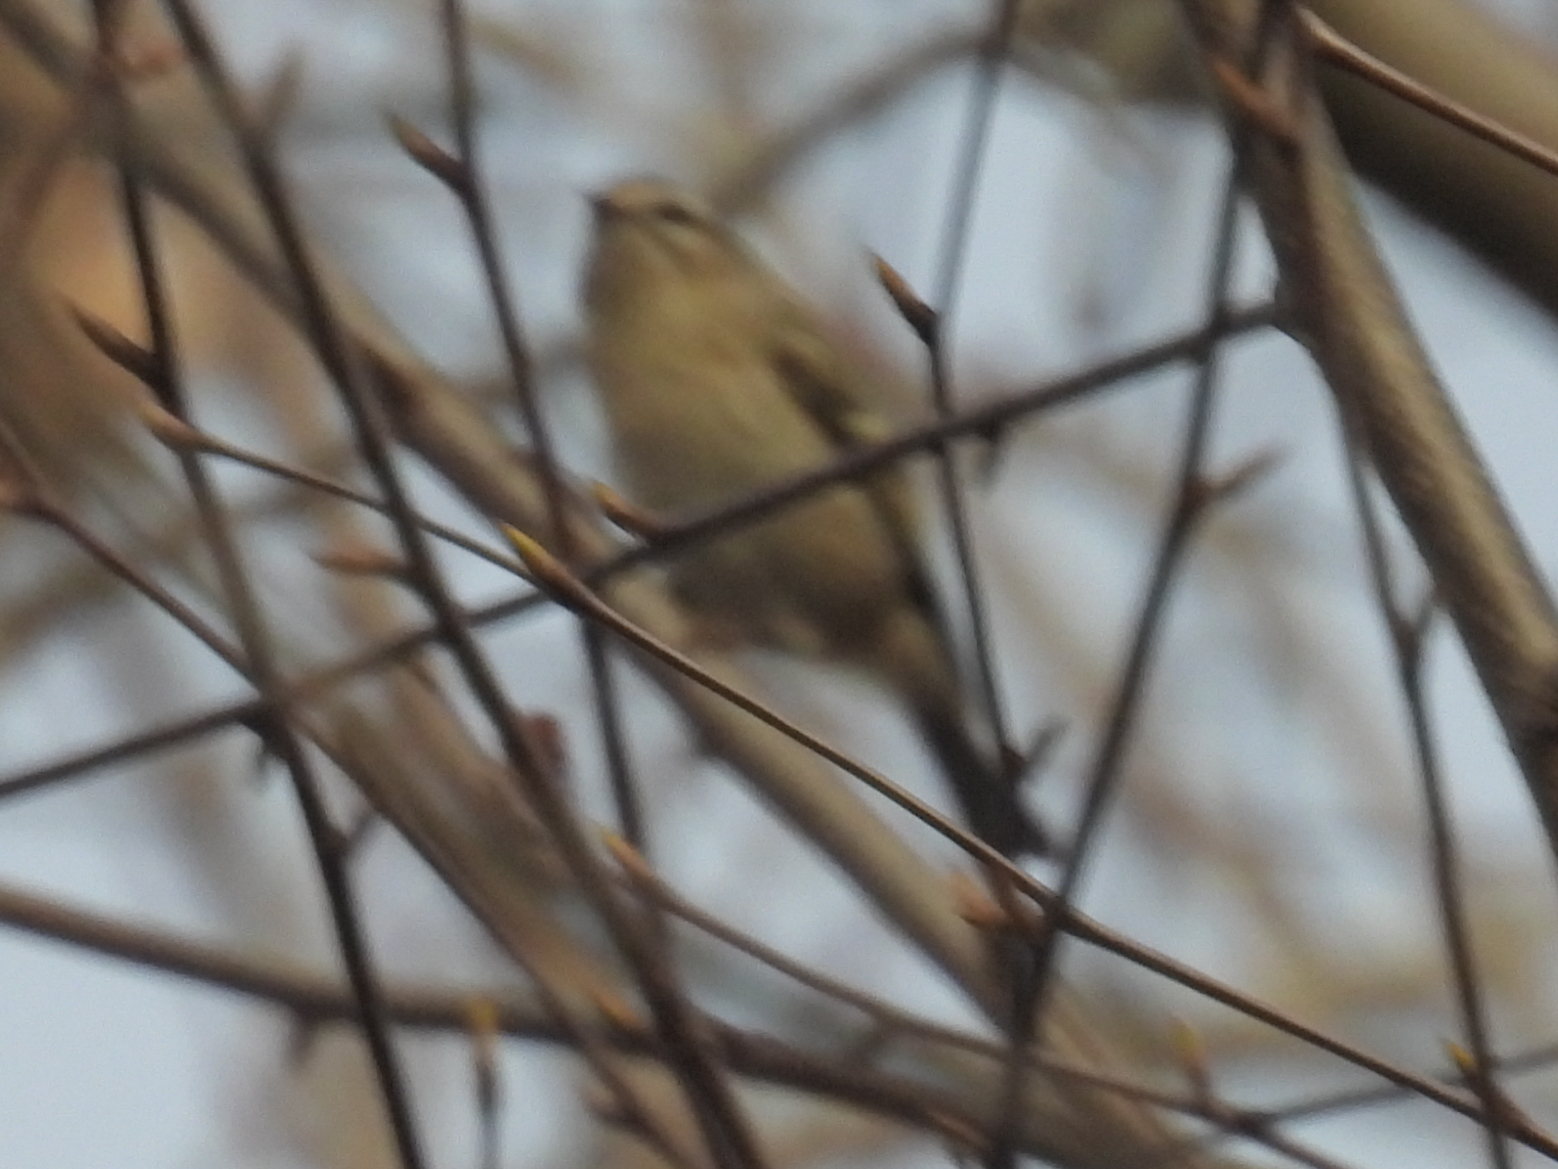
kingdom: Animalia
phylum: Chordata
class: Aves
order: Passeriformes
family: Regulidae
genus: Regulus
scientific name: Regulus satrapa
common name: Golden-crowned kinglet
